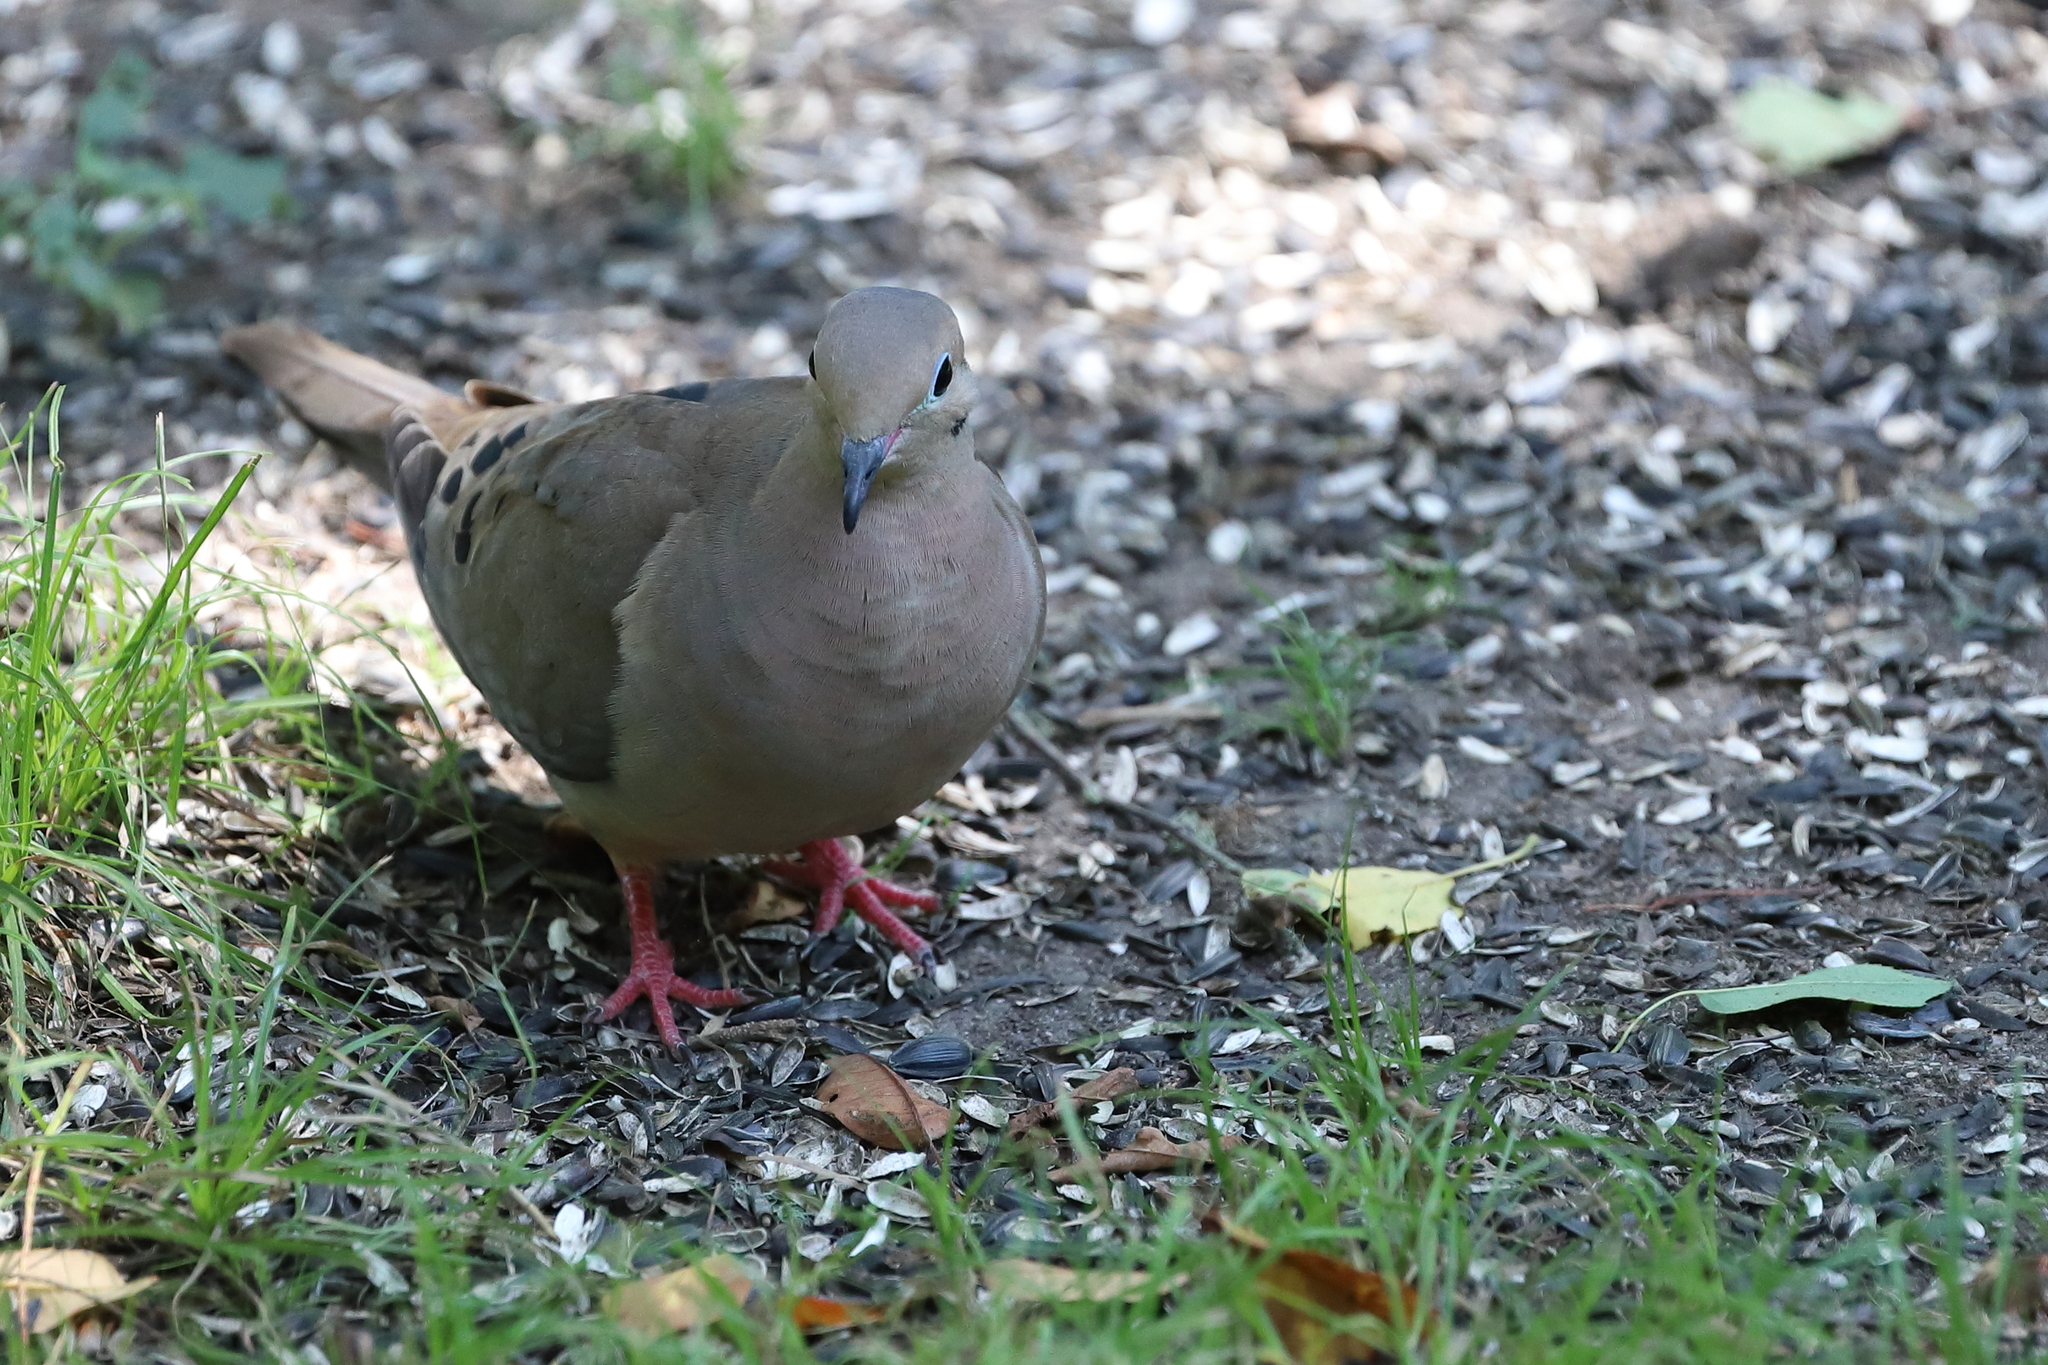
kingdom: Animalia
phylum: Chordata
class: Aves
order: Columbiformes
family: Columbidae
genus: Zenaida
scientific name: Zenaida macroura
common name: Mourning dove
